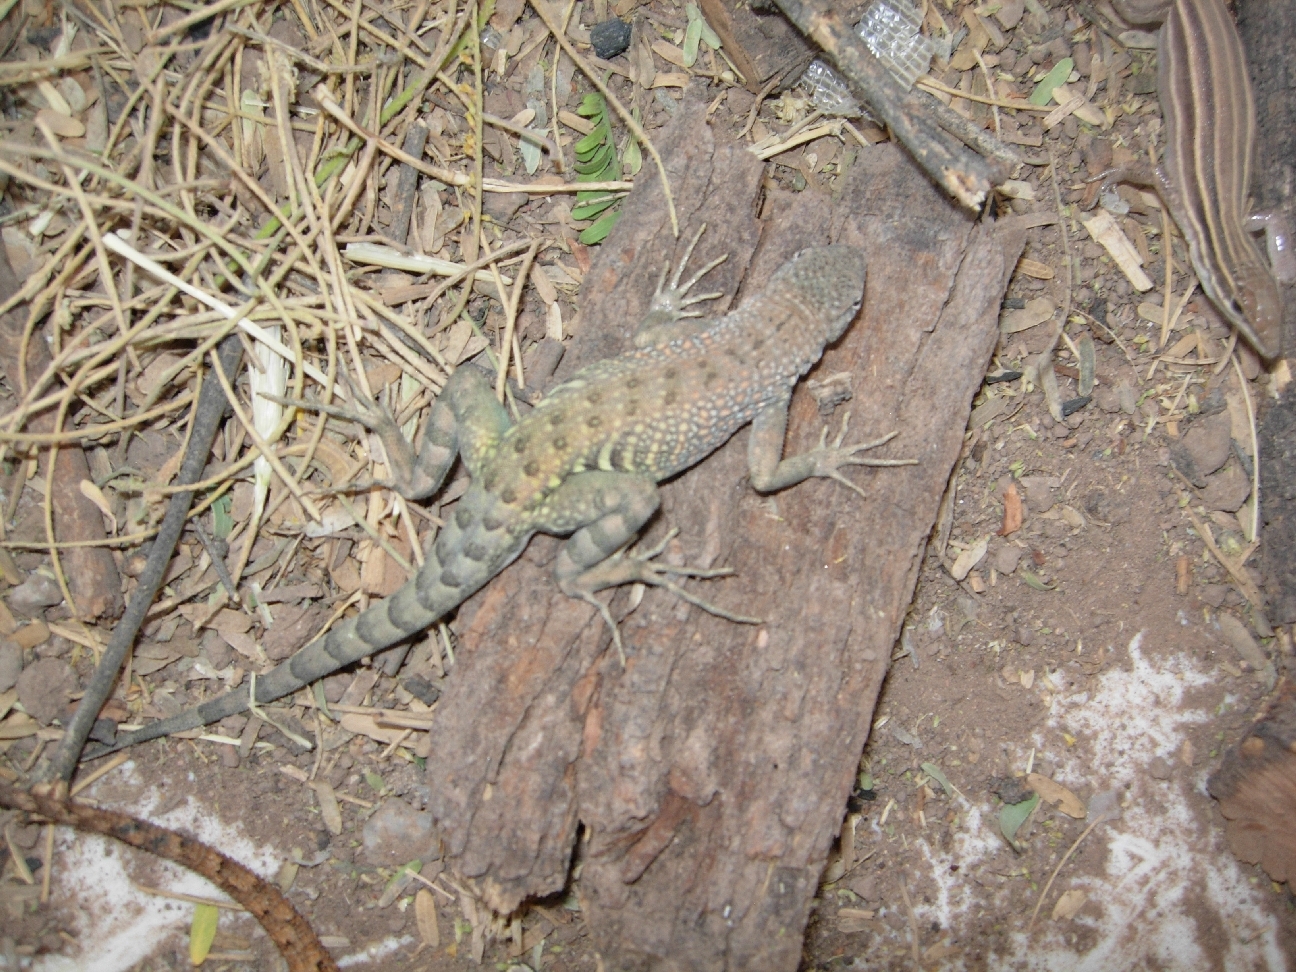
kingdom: Animalia
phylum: Chordata
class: Squamata
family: Phrynosomatidae
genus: Cophosaurus
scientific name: Cophosaurus texanus
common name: Greater earless lizard
